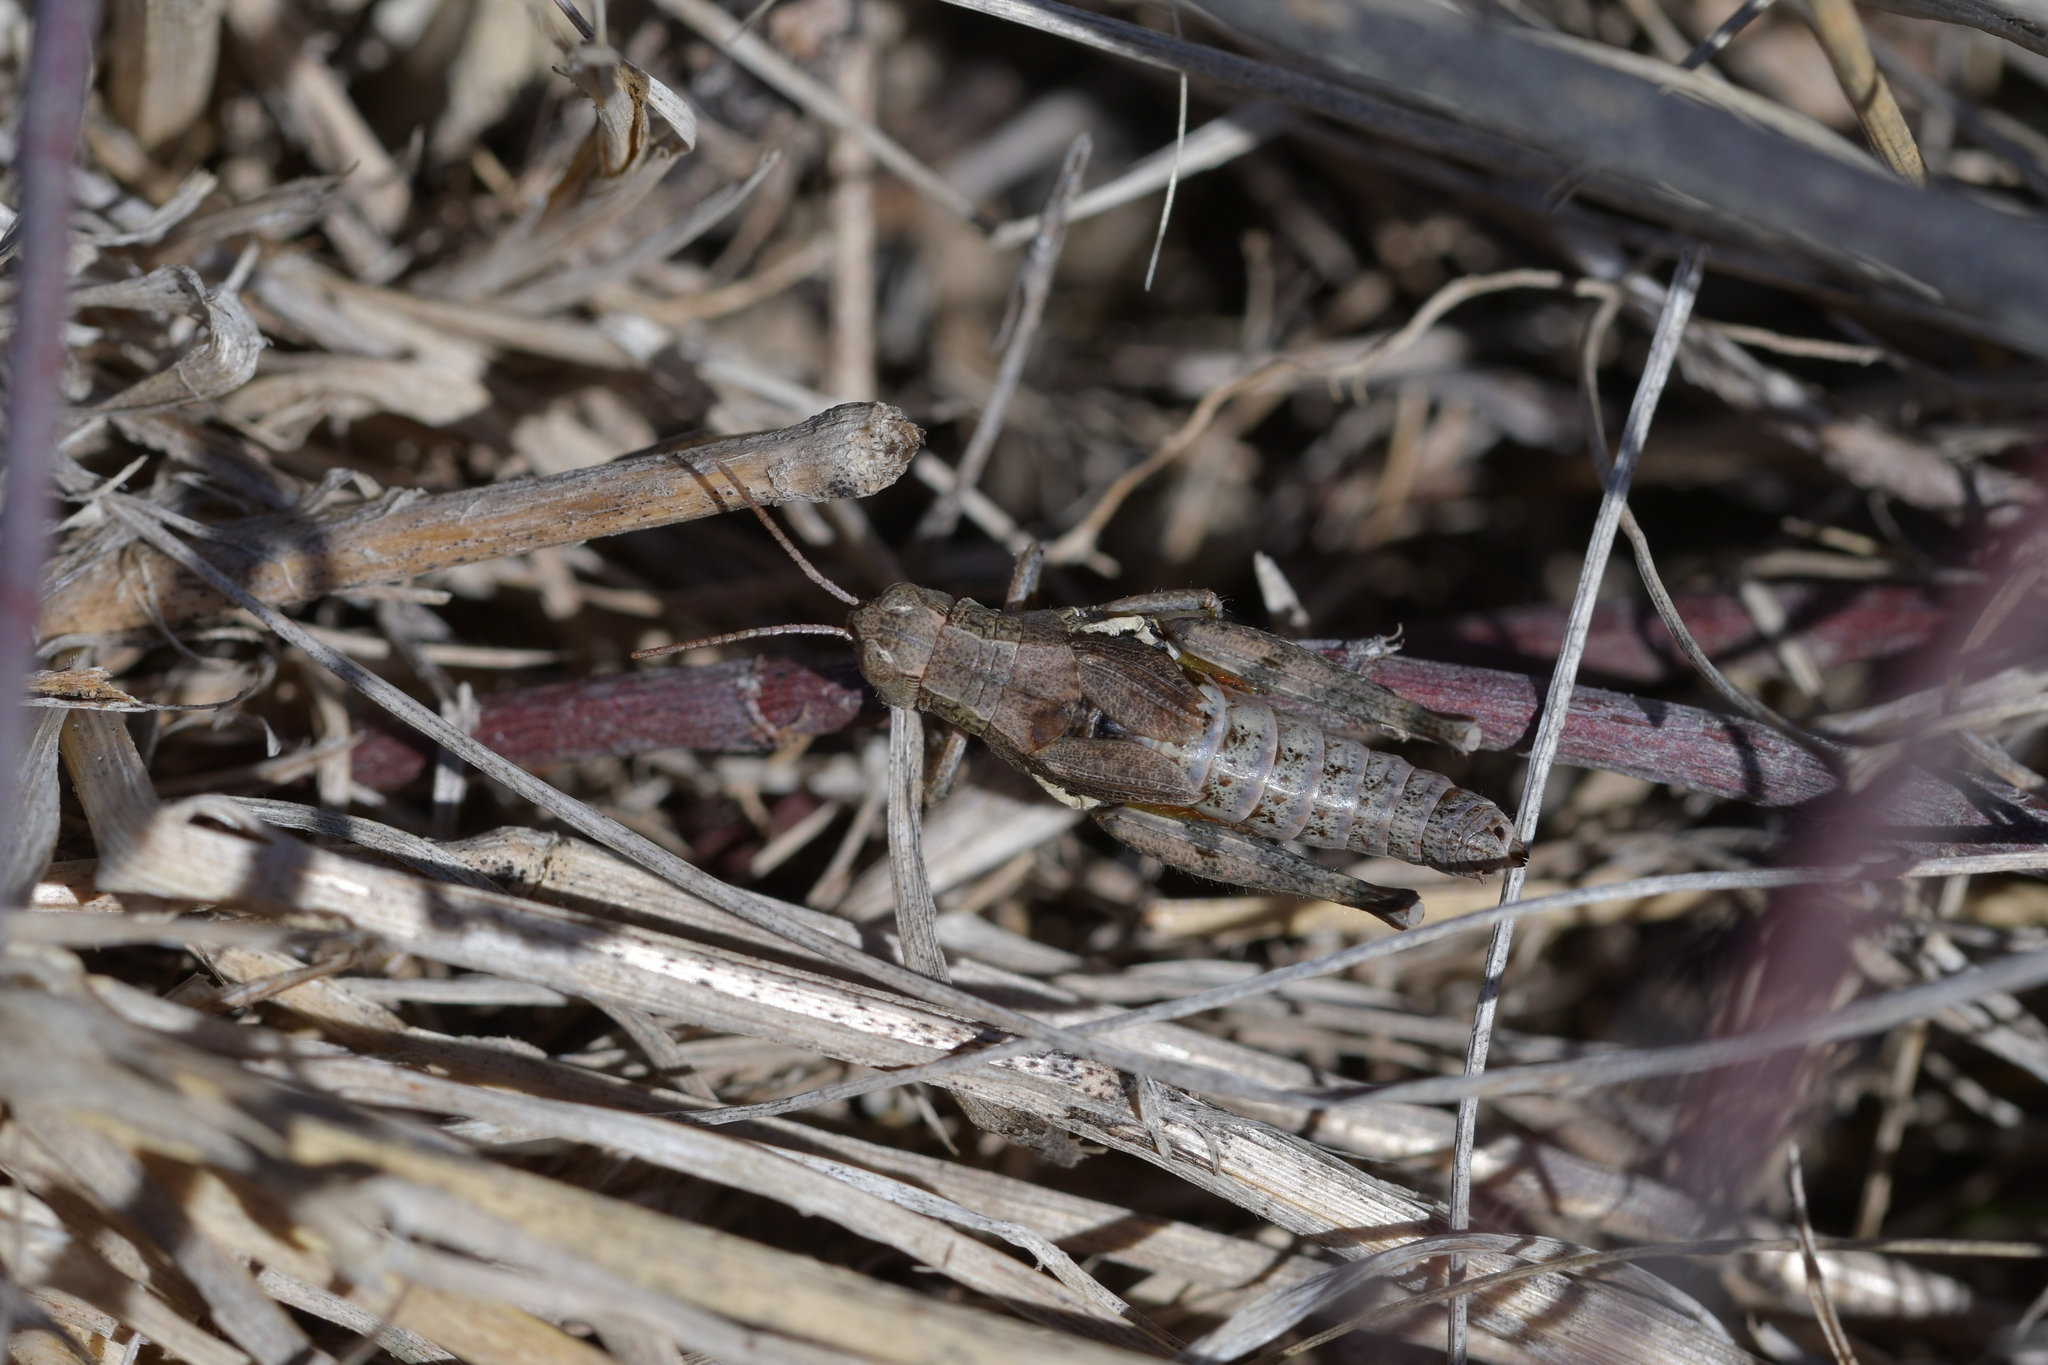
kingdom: Animalia
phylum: Arthropoda
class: Insecta
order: Orthoptera
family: Acrididae
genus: Phaulacridium
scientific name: Phaulacridium marginale
